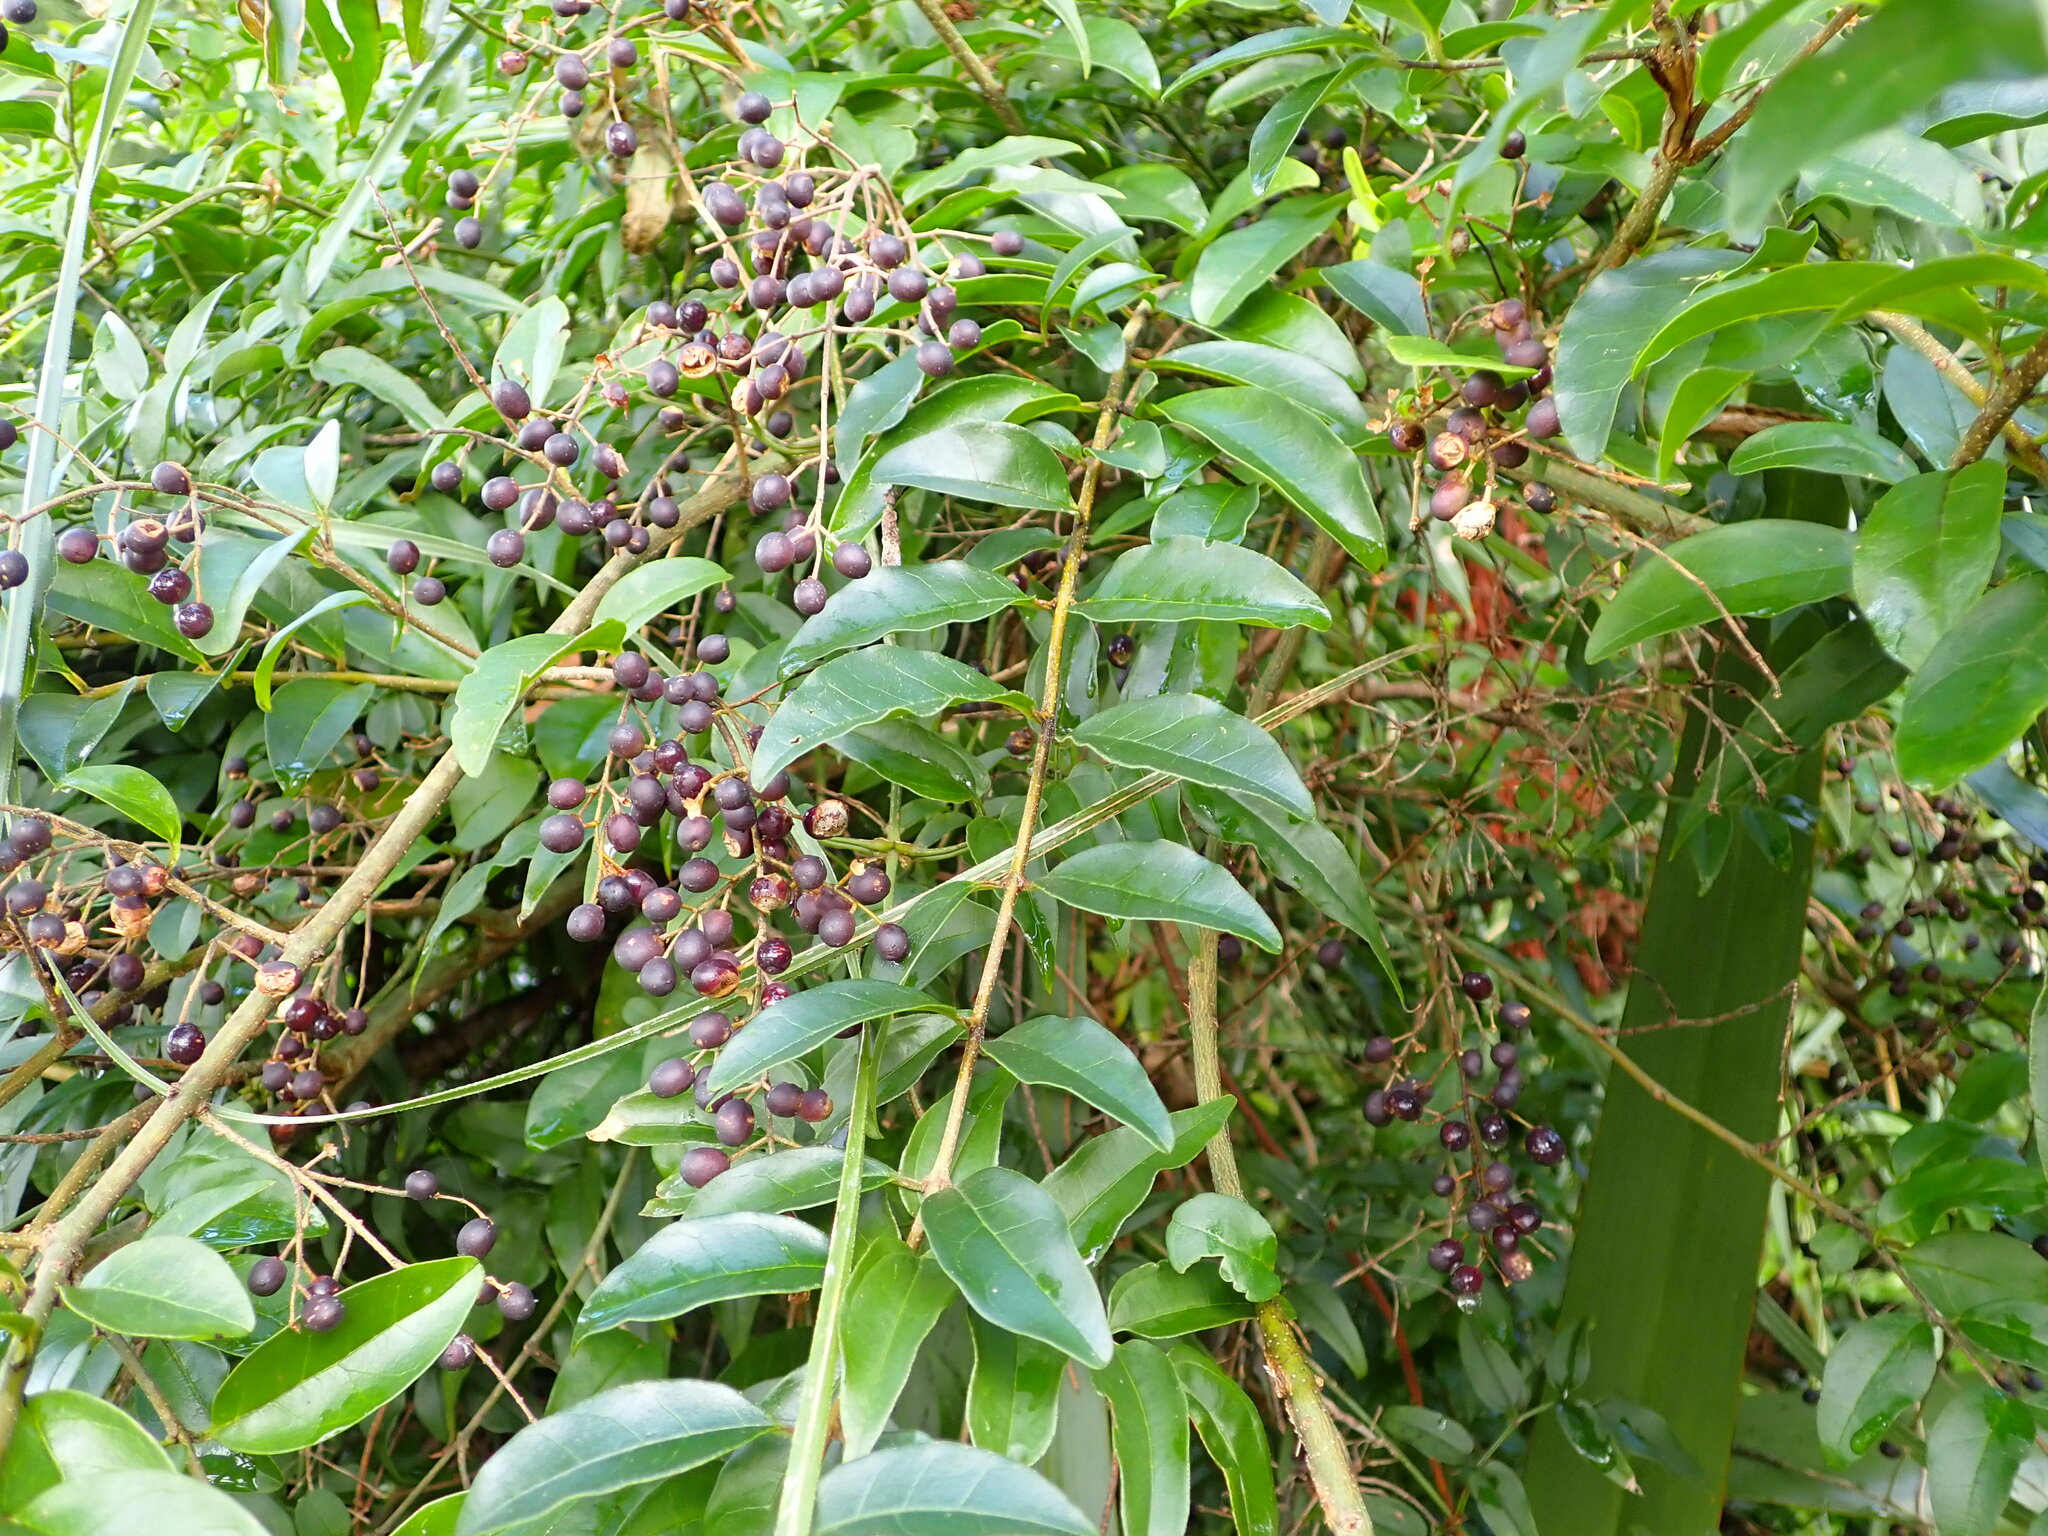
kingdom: Plantae
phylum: Tracheophyta
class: Magnoliopsida
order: Lamiales
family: Oleaceae
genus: Ligustrum
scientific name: Ligustrum sinense
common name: Chinese privet
